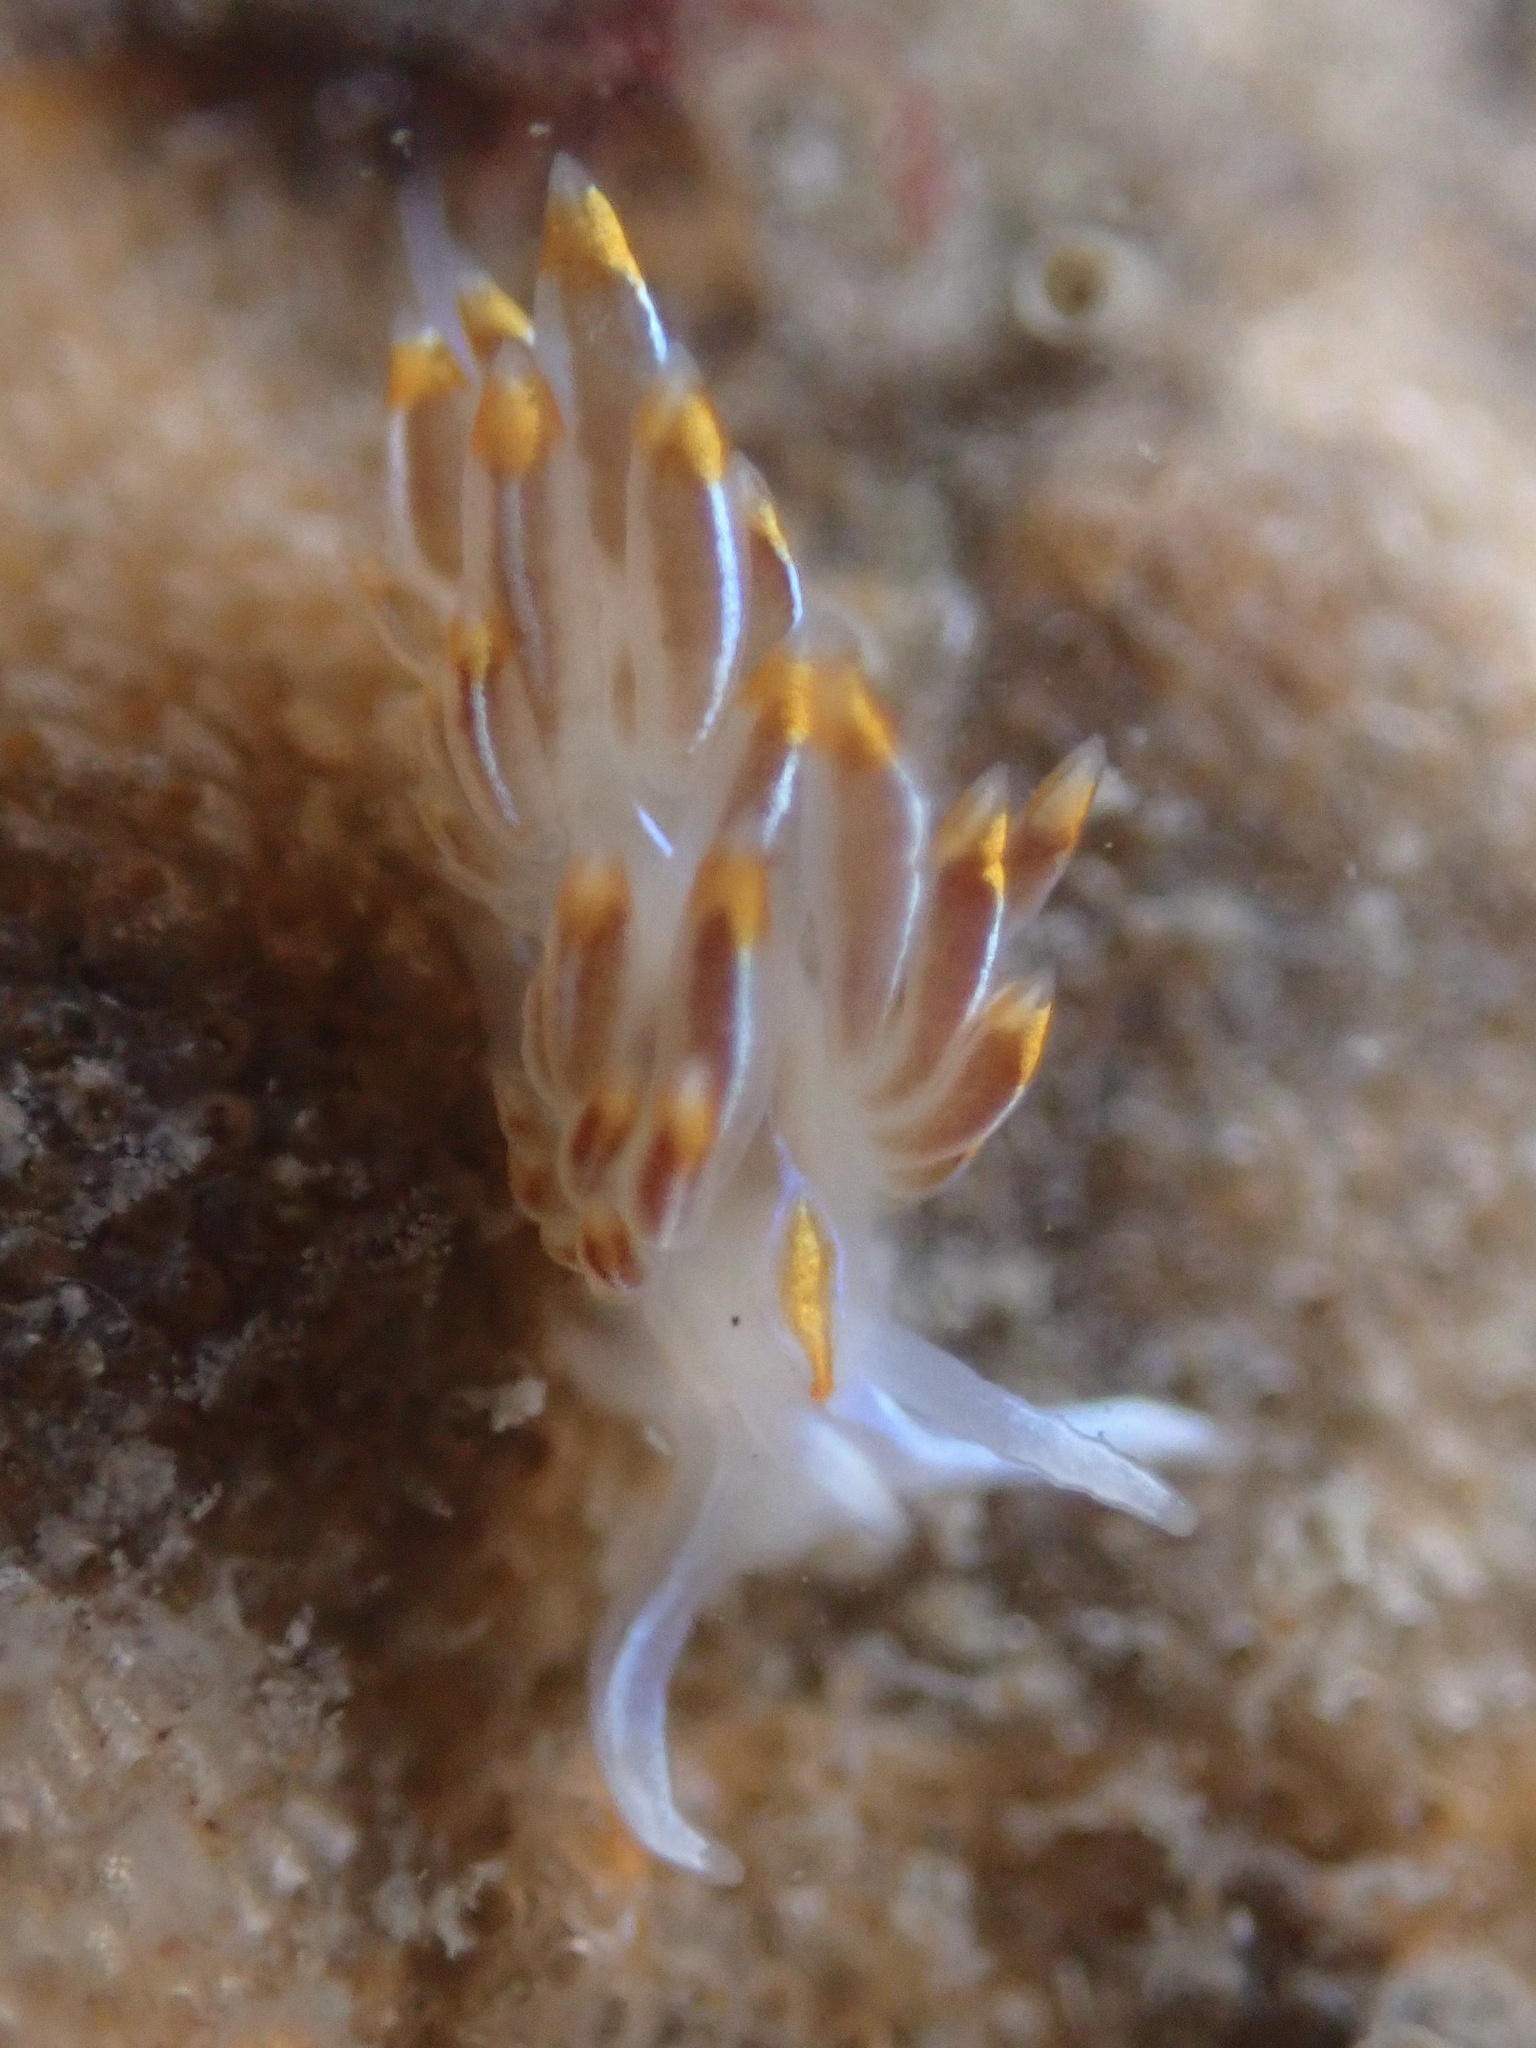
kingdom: Animalia
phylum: Mollusca
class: Gastropoda
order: Nudibranchia
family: Myrrhinidae
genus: Hermissenda
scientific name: Hermissenda crassicornis
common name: Hermissenda
